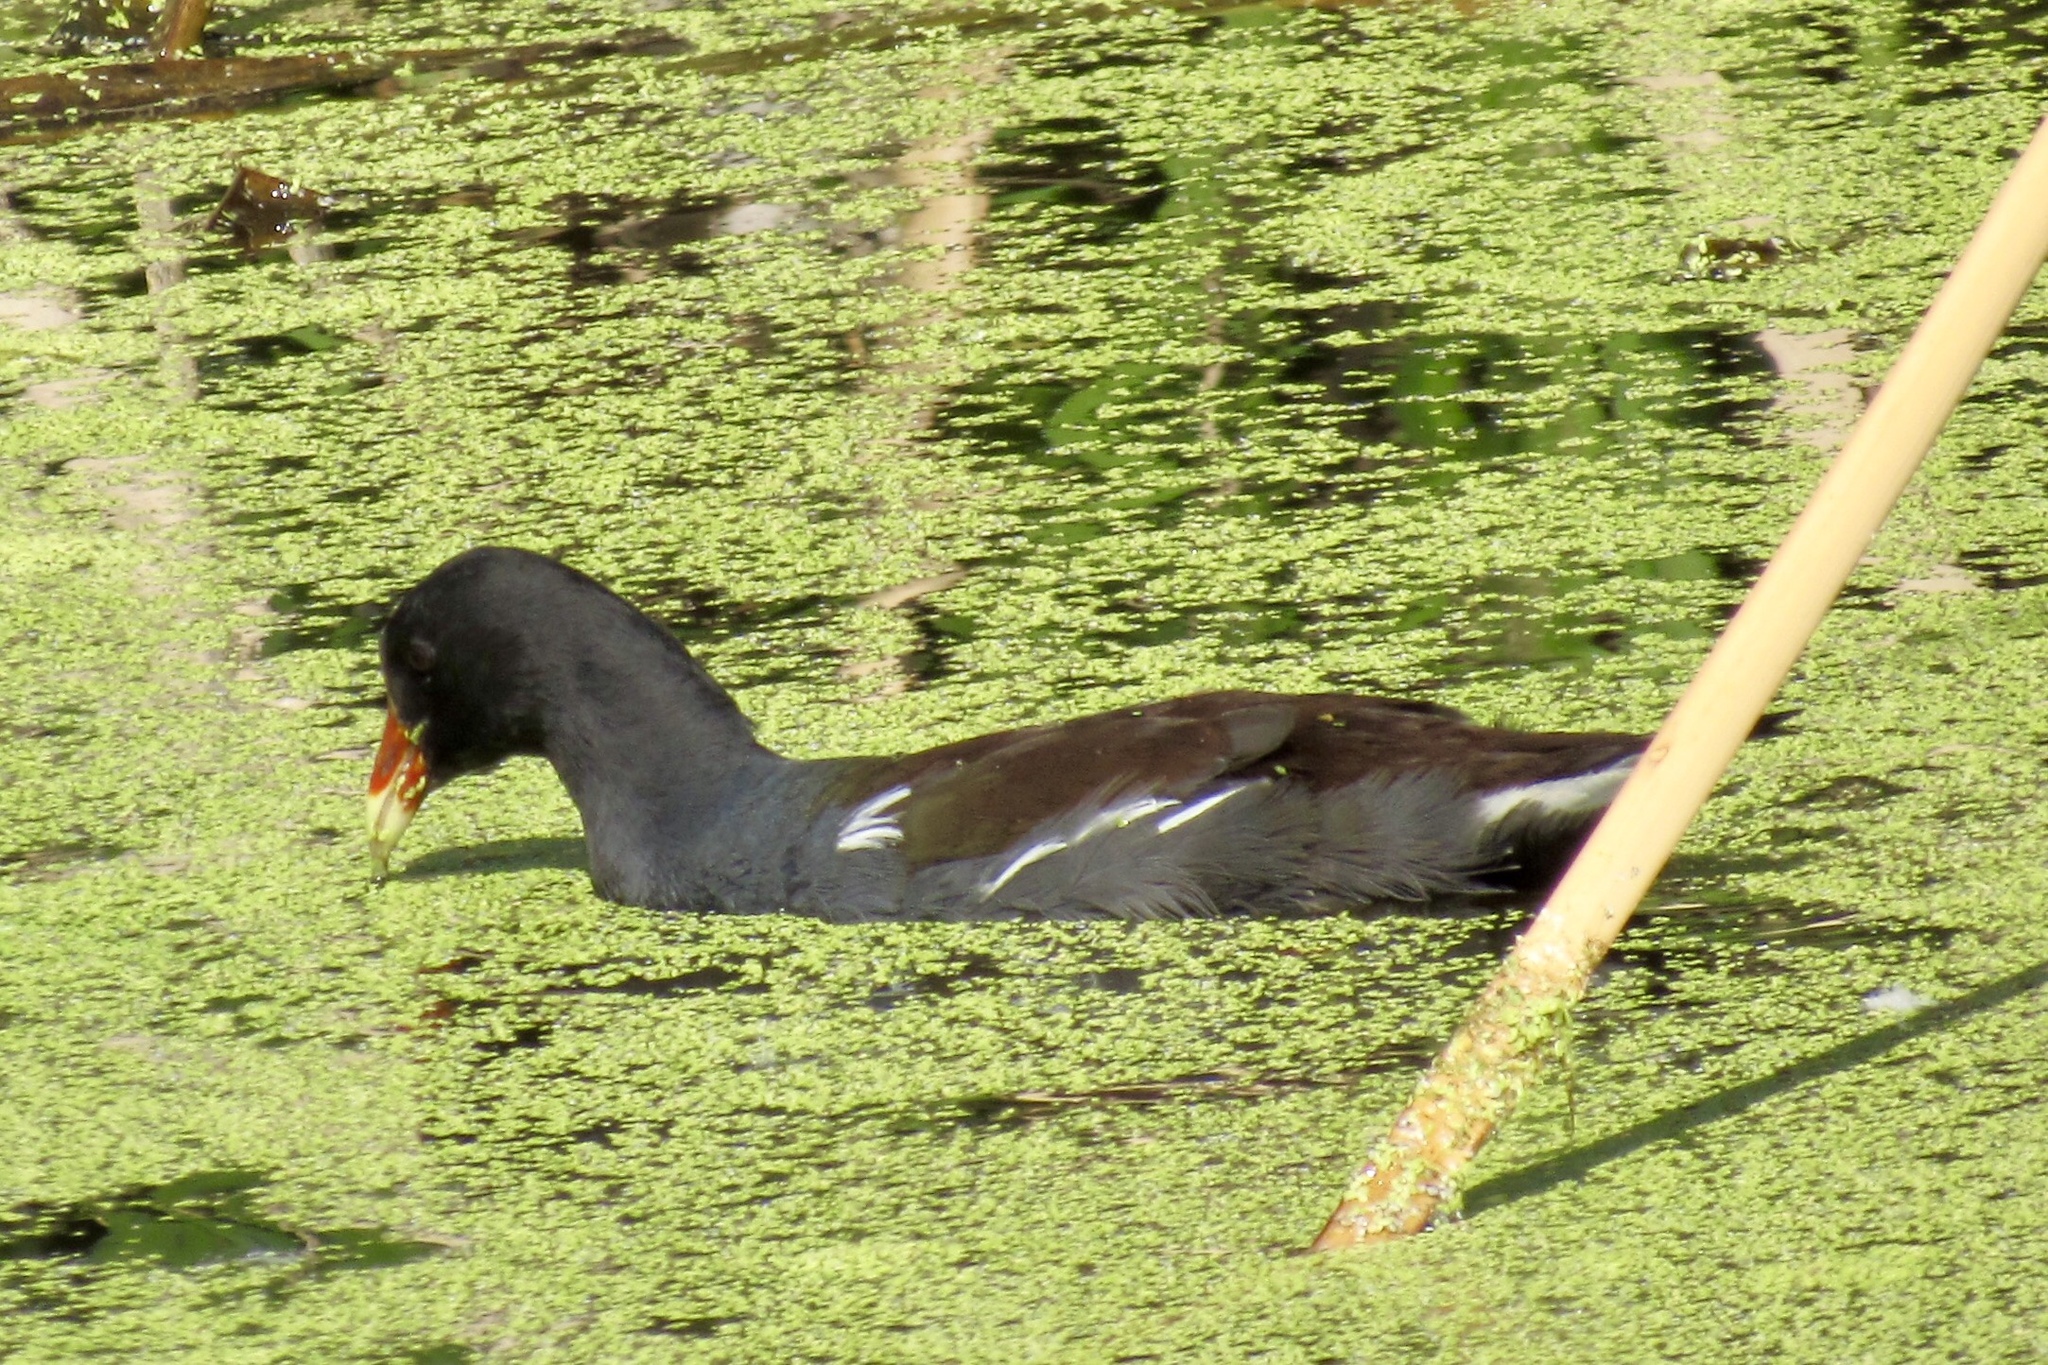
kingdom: Animalia
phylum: Chordata
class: Aves
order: Gruiformes
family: Rallidae
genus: Gallinula
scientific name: Gallinula chloropus
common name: Common moorhen
